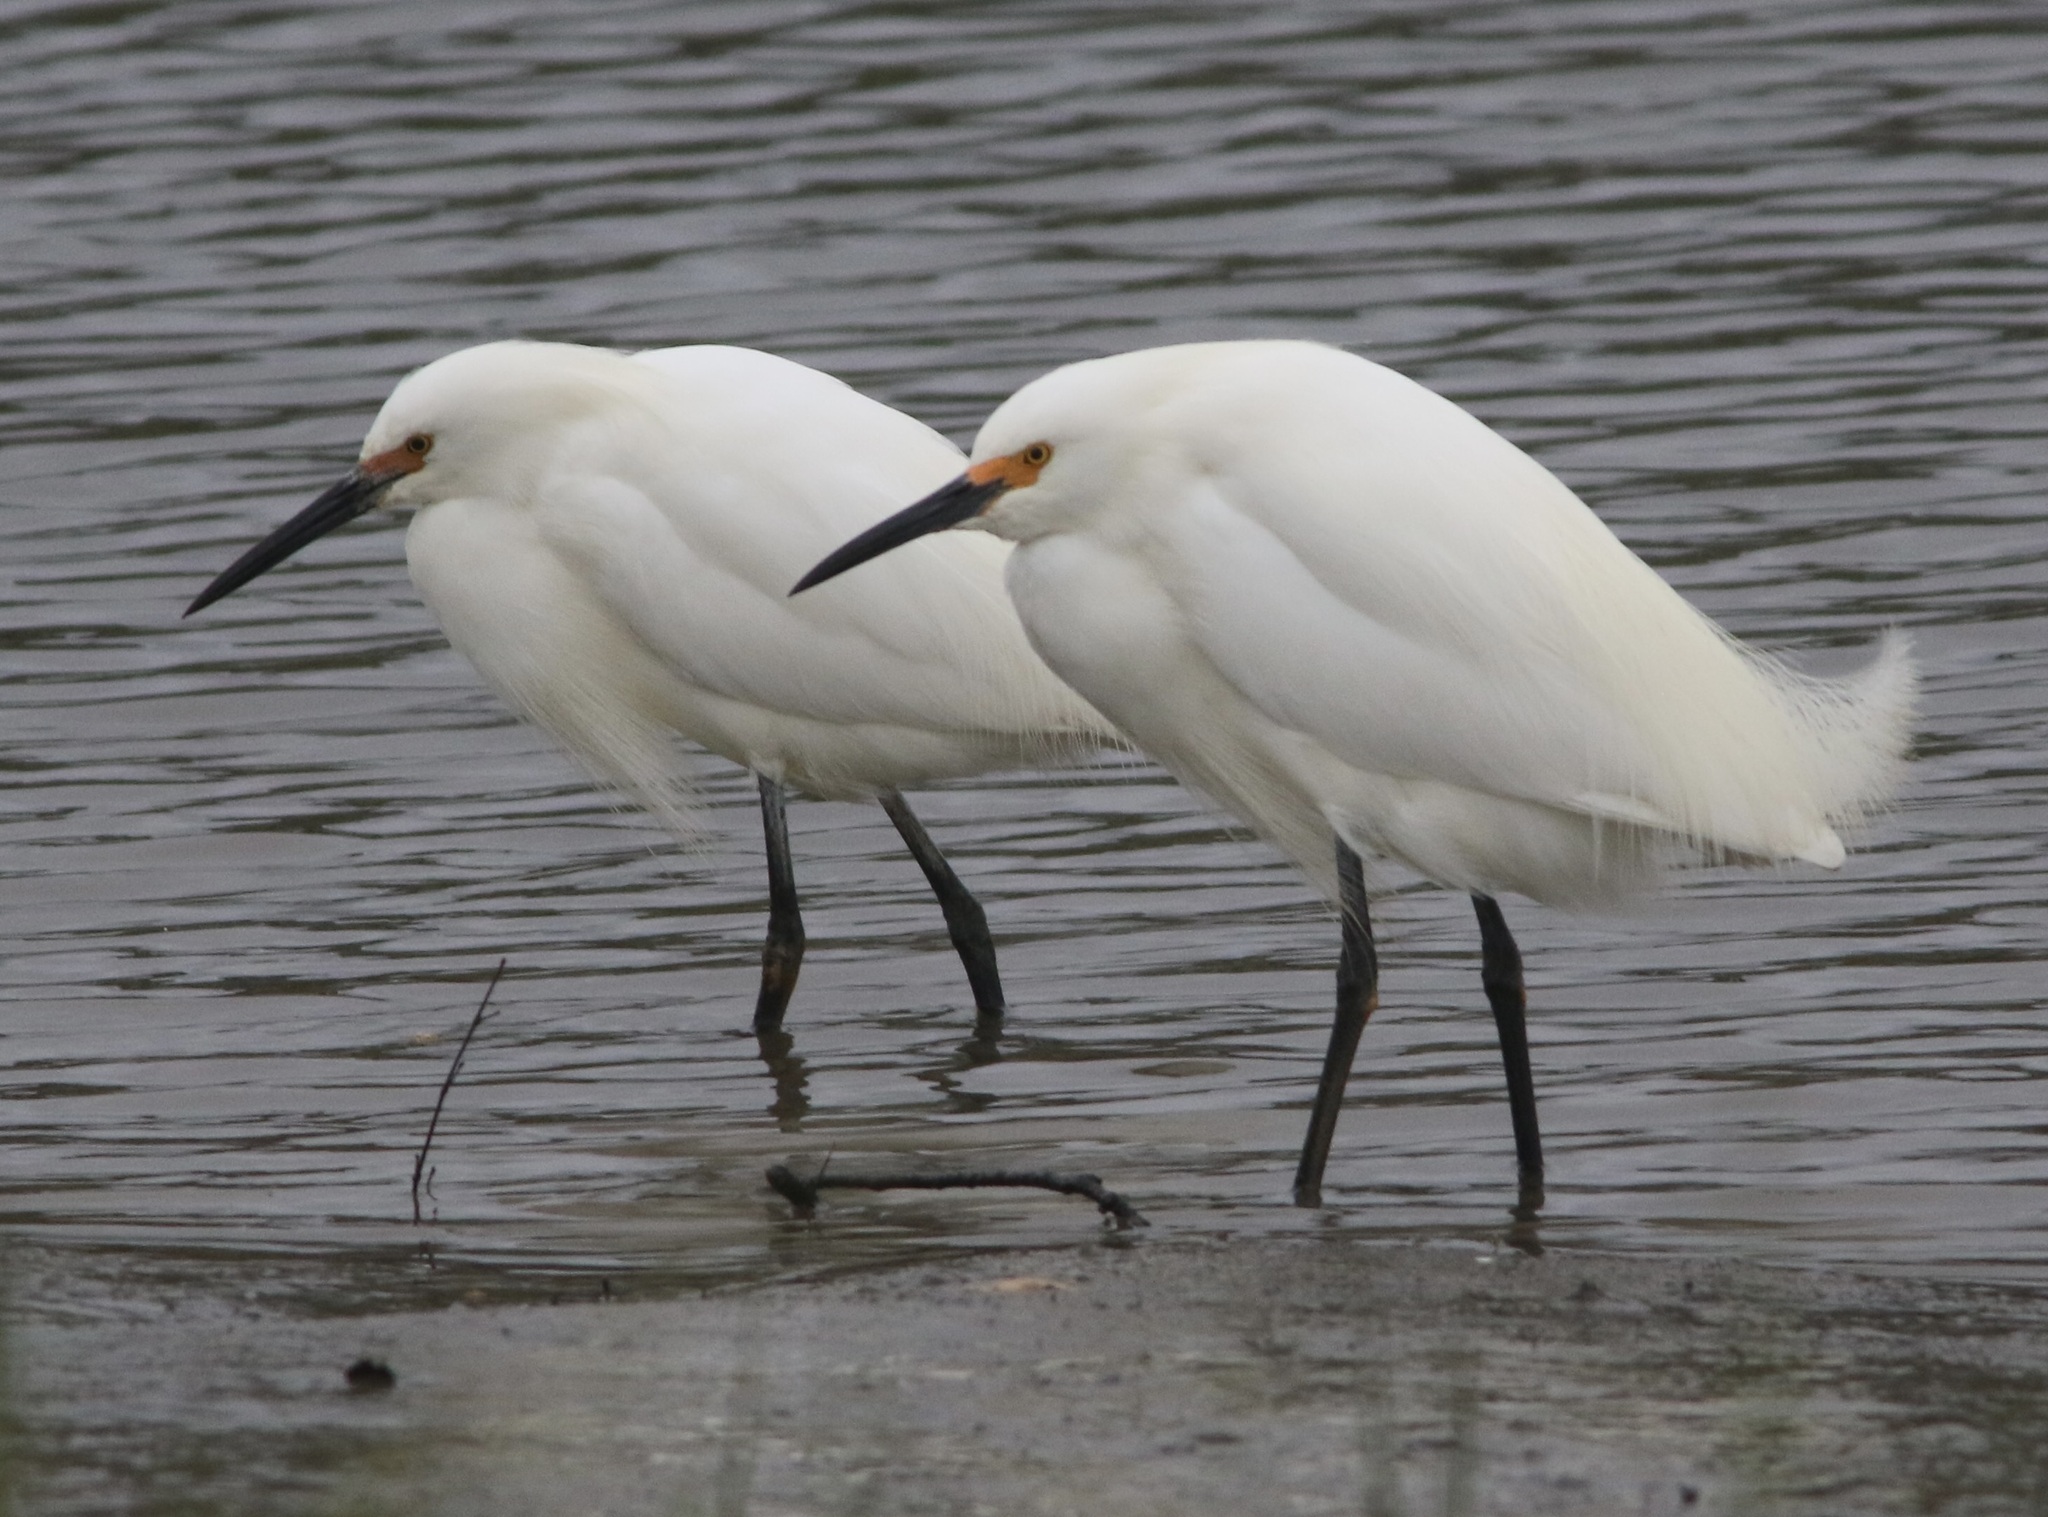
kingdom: Animalia
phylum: Chordata
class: Aves
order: Pelecaniformes
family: Ardeidae
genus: Egretta
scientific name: Egretta thula
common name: Snowy egret
